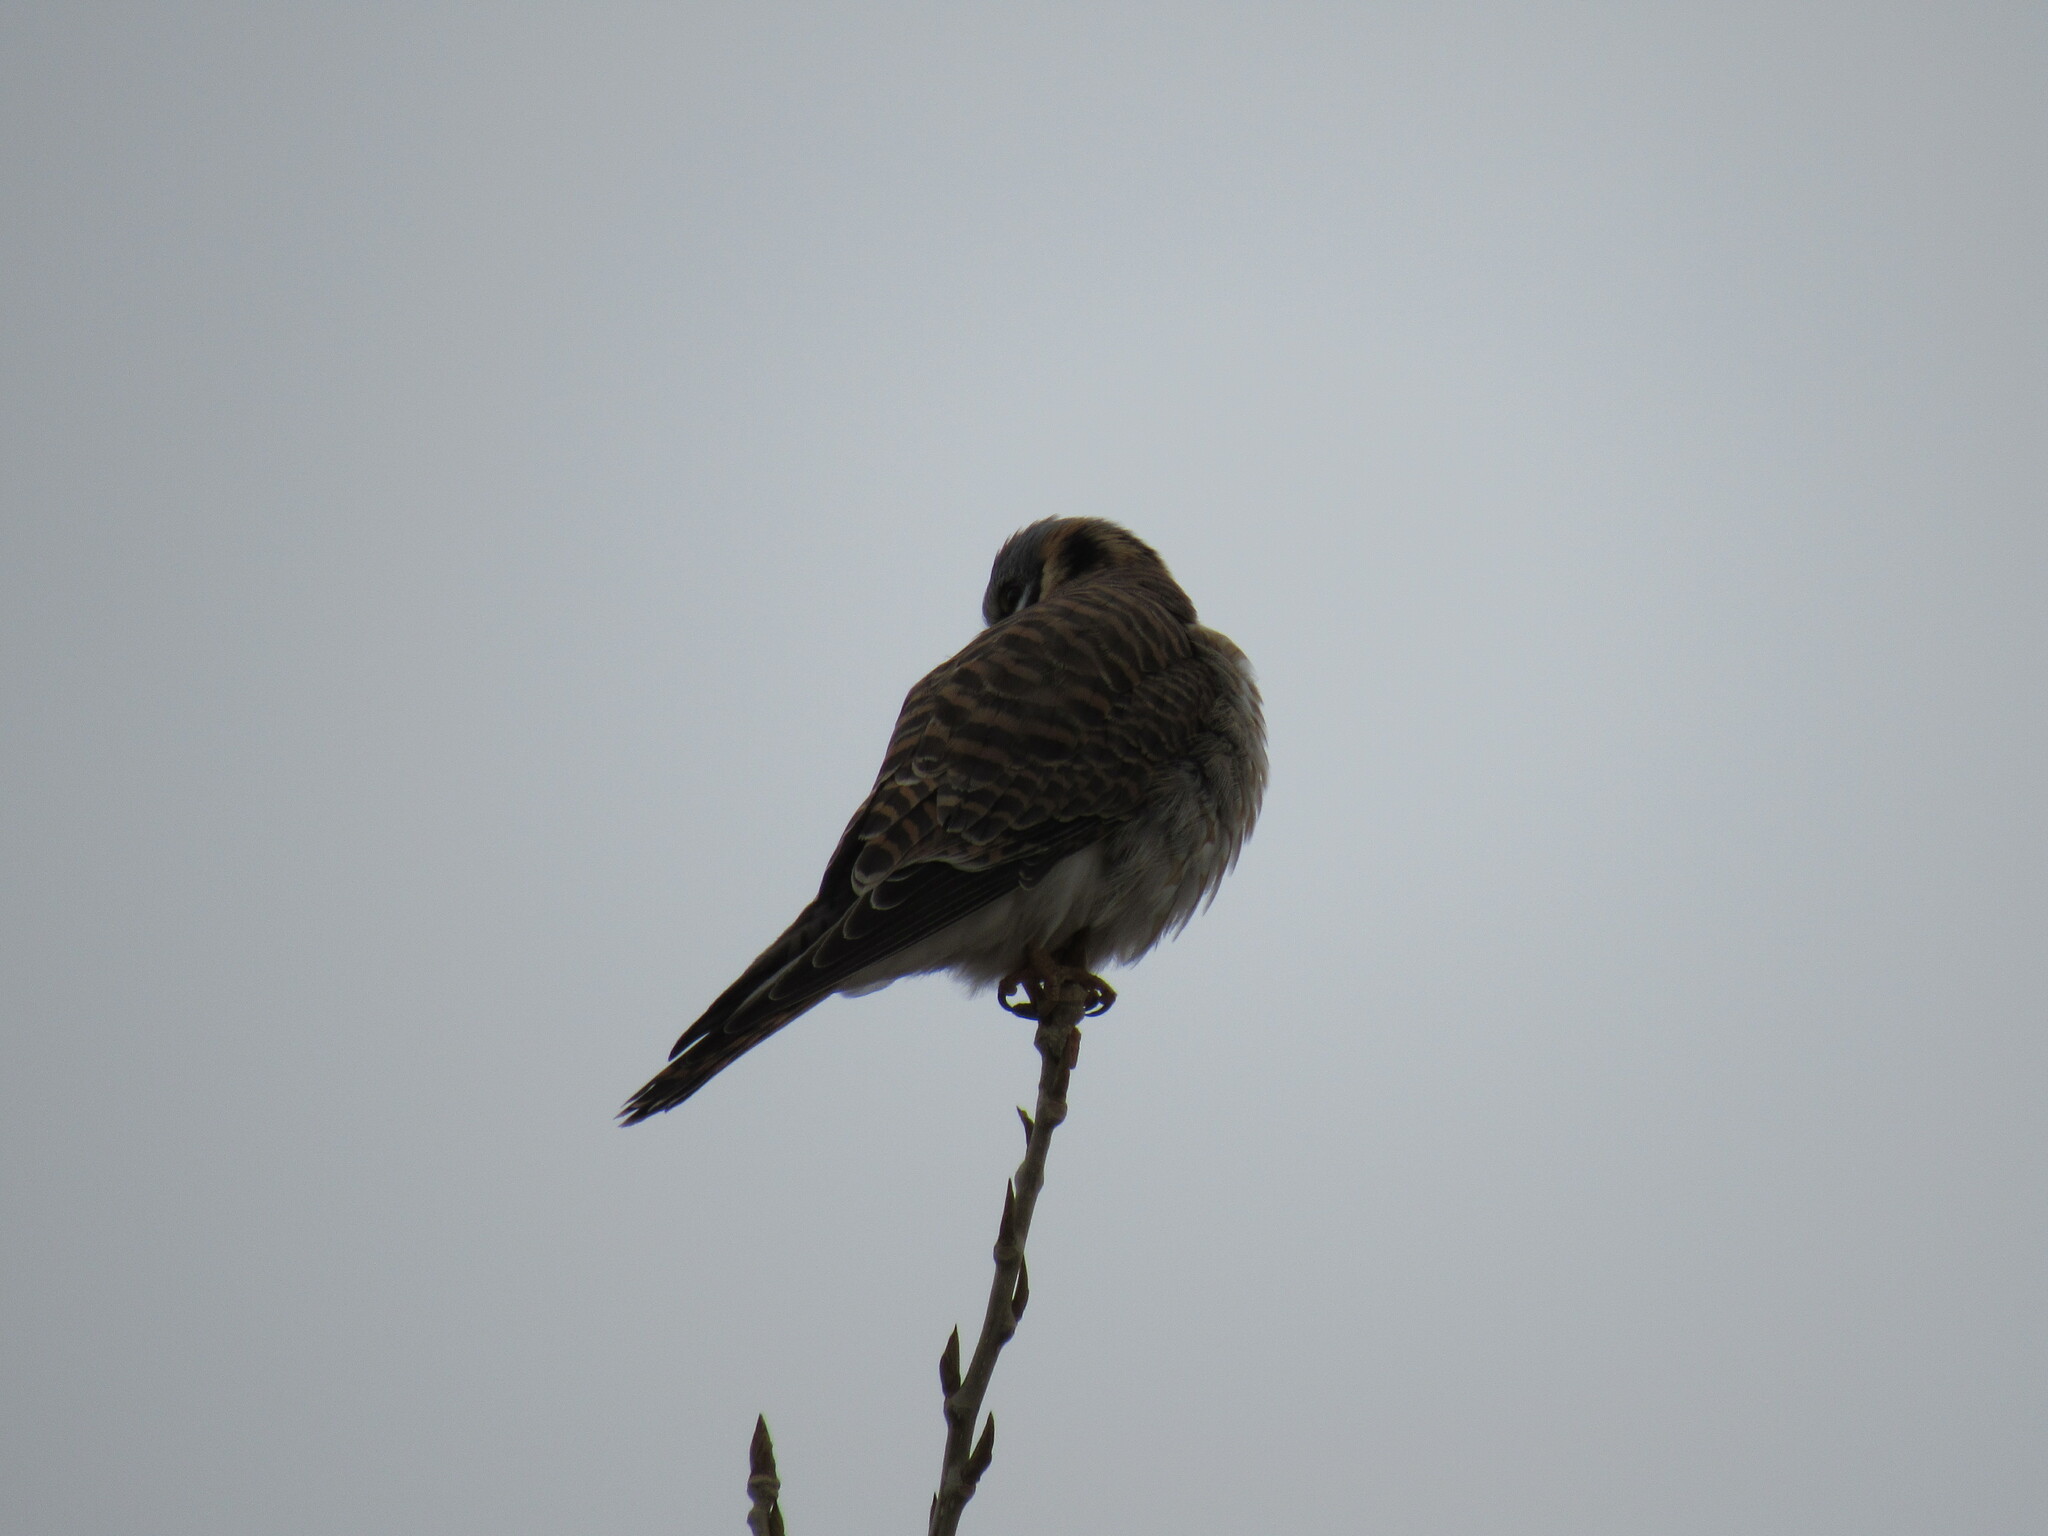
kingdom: Animalia
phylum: Chordata
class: Aves
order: Falconiformes
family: Falconidae
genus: Falco
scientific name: Falco sparverius
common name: American kestrel
